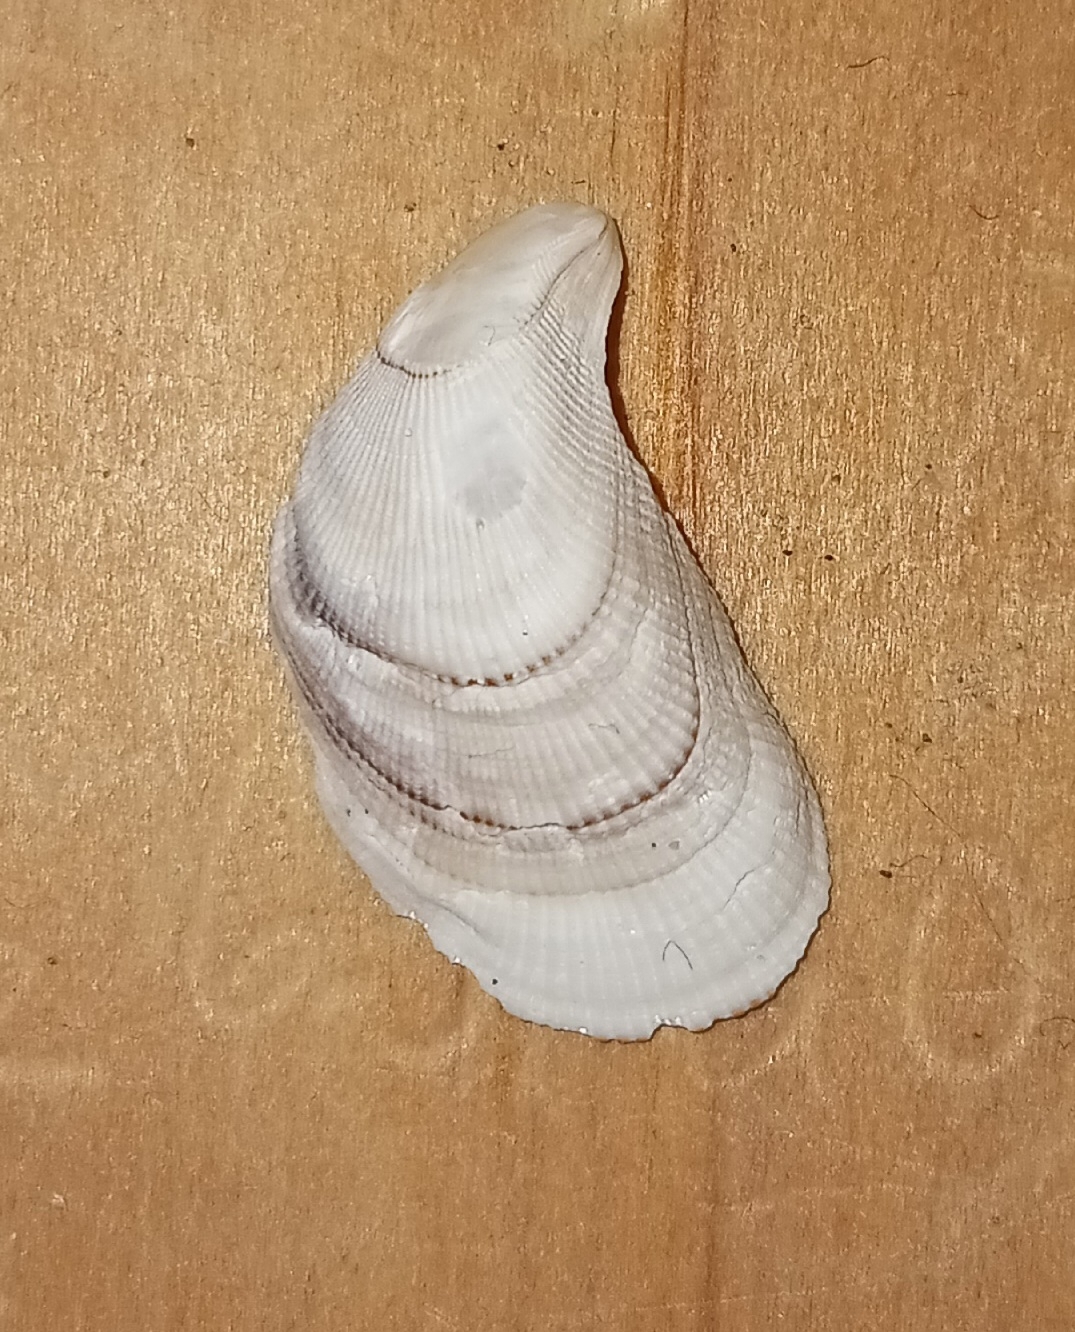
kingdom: Animalia
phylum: Mollusca
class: Bivalvia
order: Mytilida
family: Mytilidae
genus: Geukensia
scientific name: Geukensia demissa
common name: Ribbed mussel
